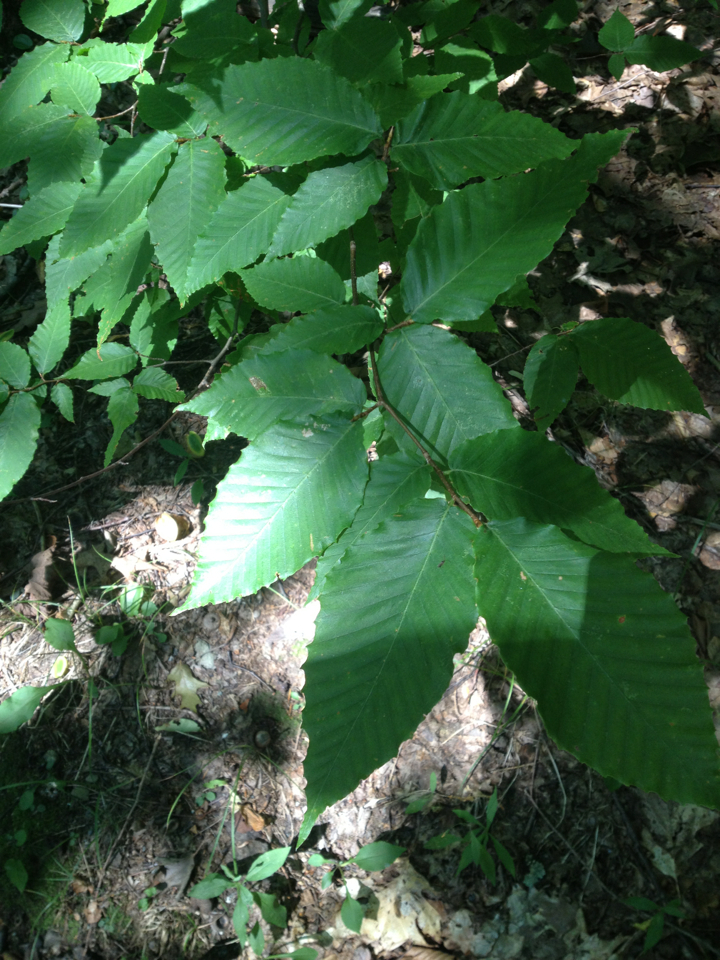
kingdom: Plantae
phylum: Tracheophyta
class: Magnoliopsida
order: Fagales
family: Fagaceae
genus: Fagus
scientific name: Fagus grandifolia
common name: American beech
